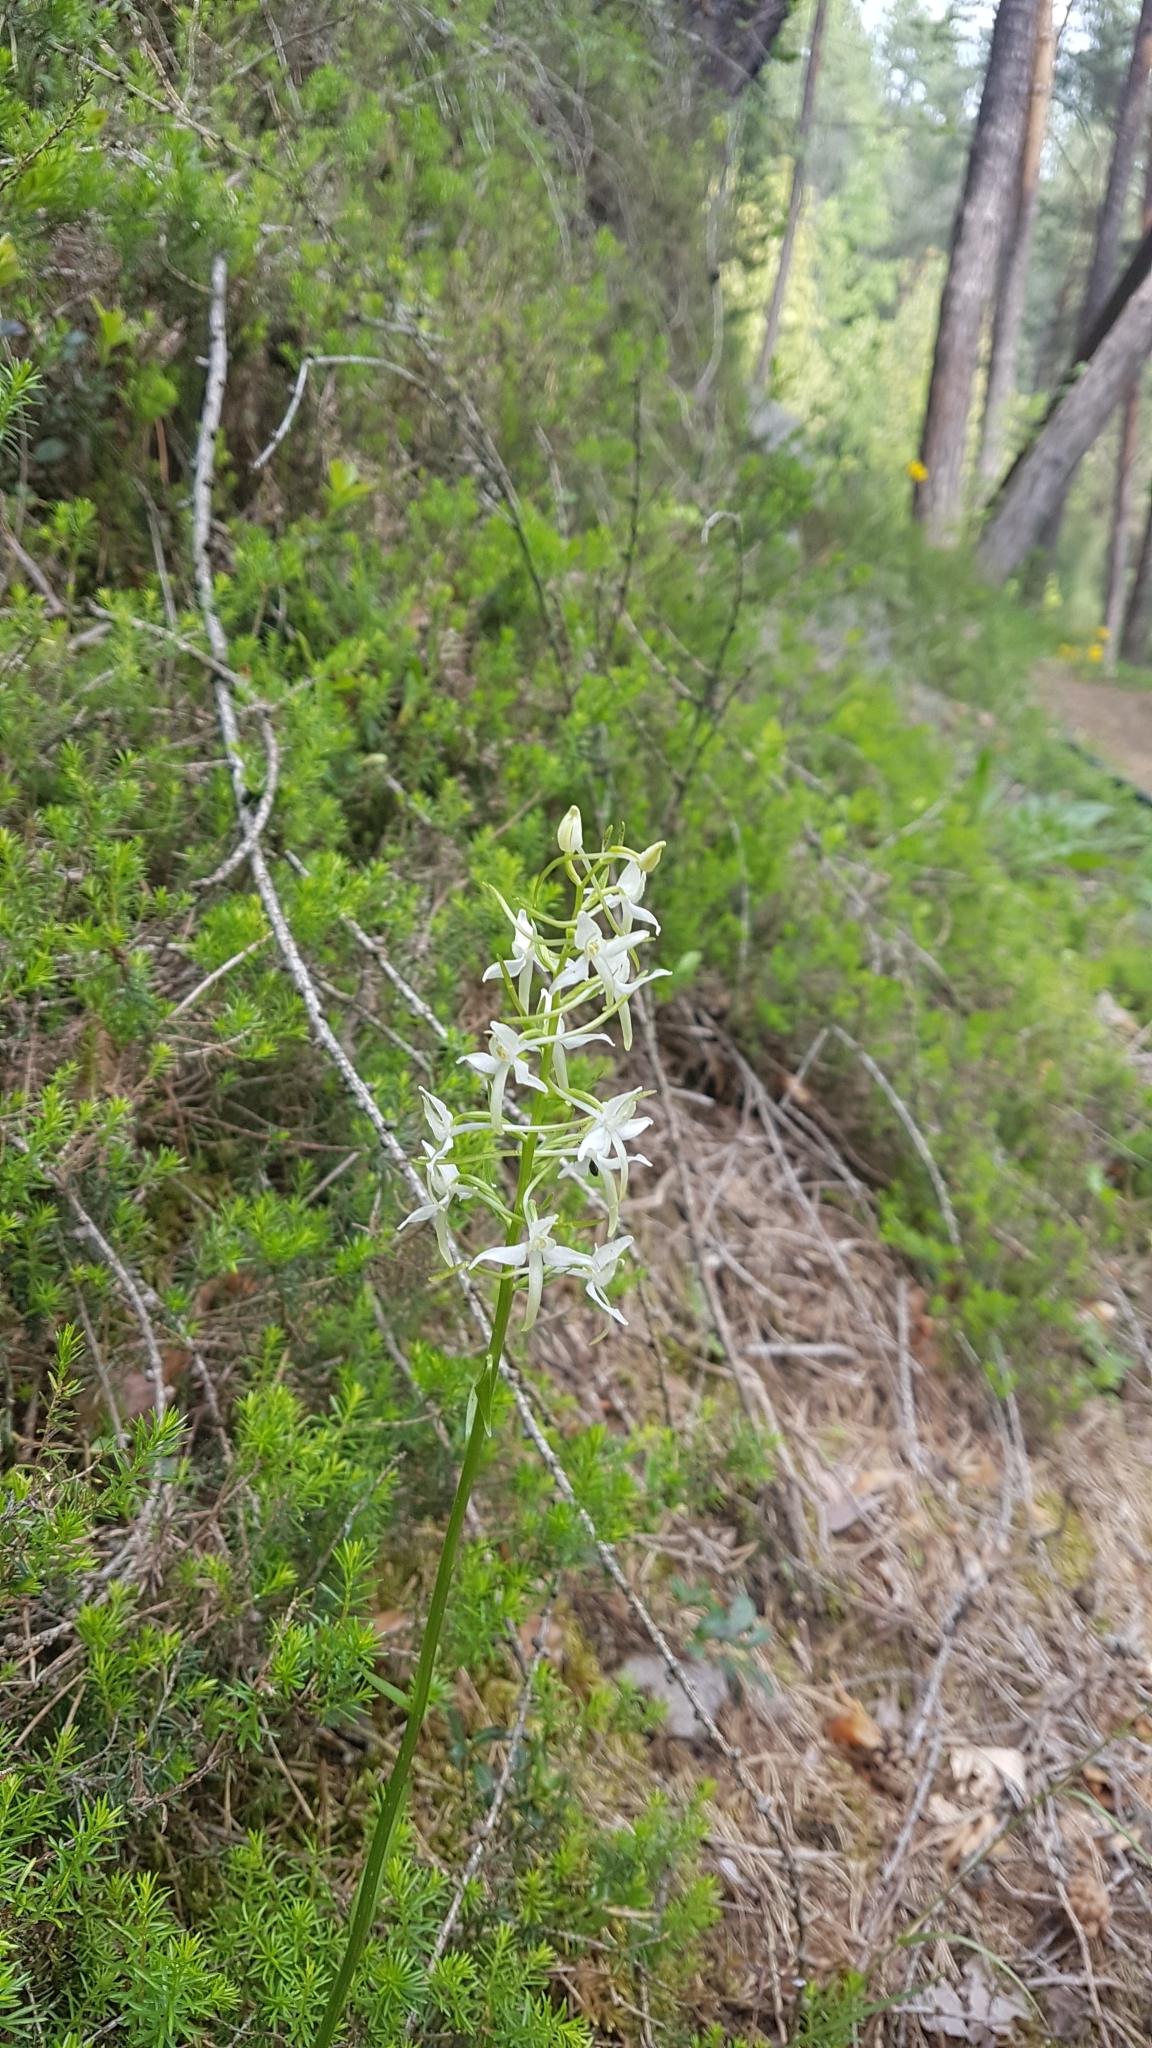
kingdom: Plantae
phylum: Tracheophyta
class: Liliopsida
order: Asparagales
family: Orchidaceae
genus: Platanthera
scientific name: Platanthera bifolia
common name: Lesser butterfly-orchid
